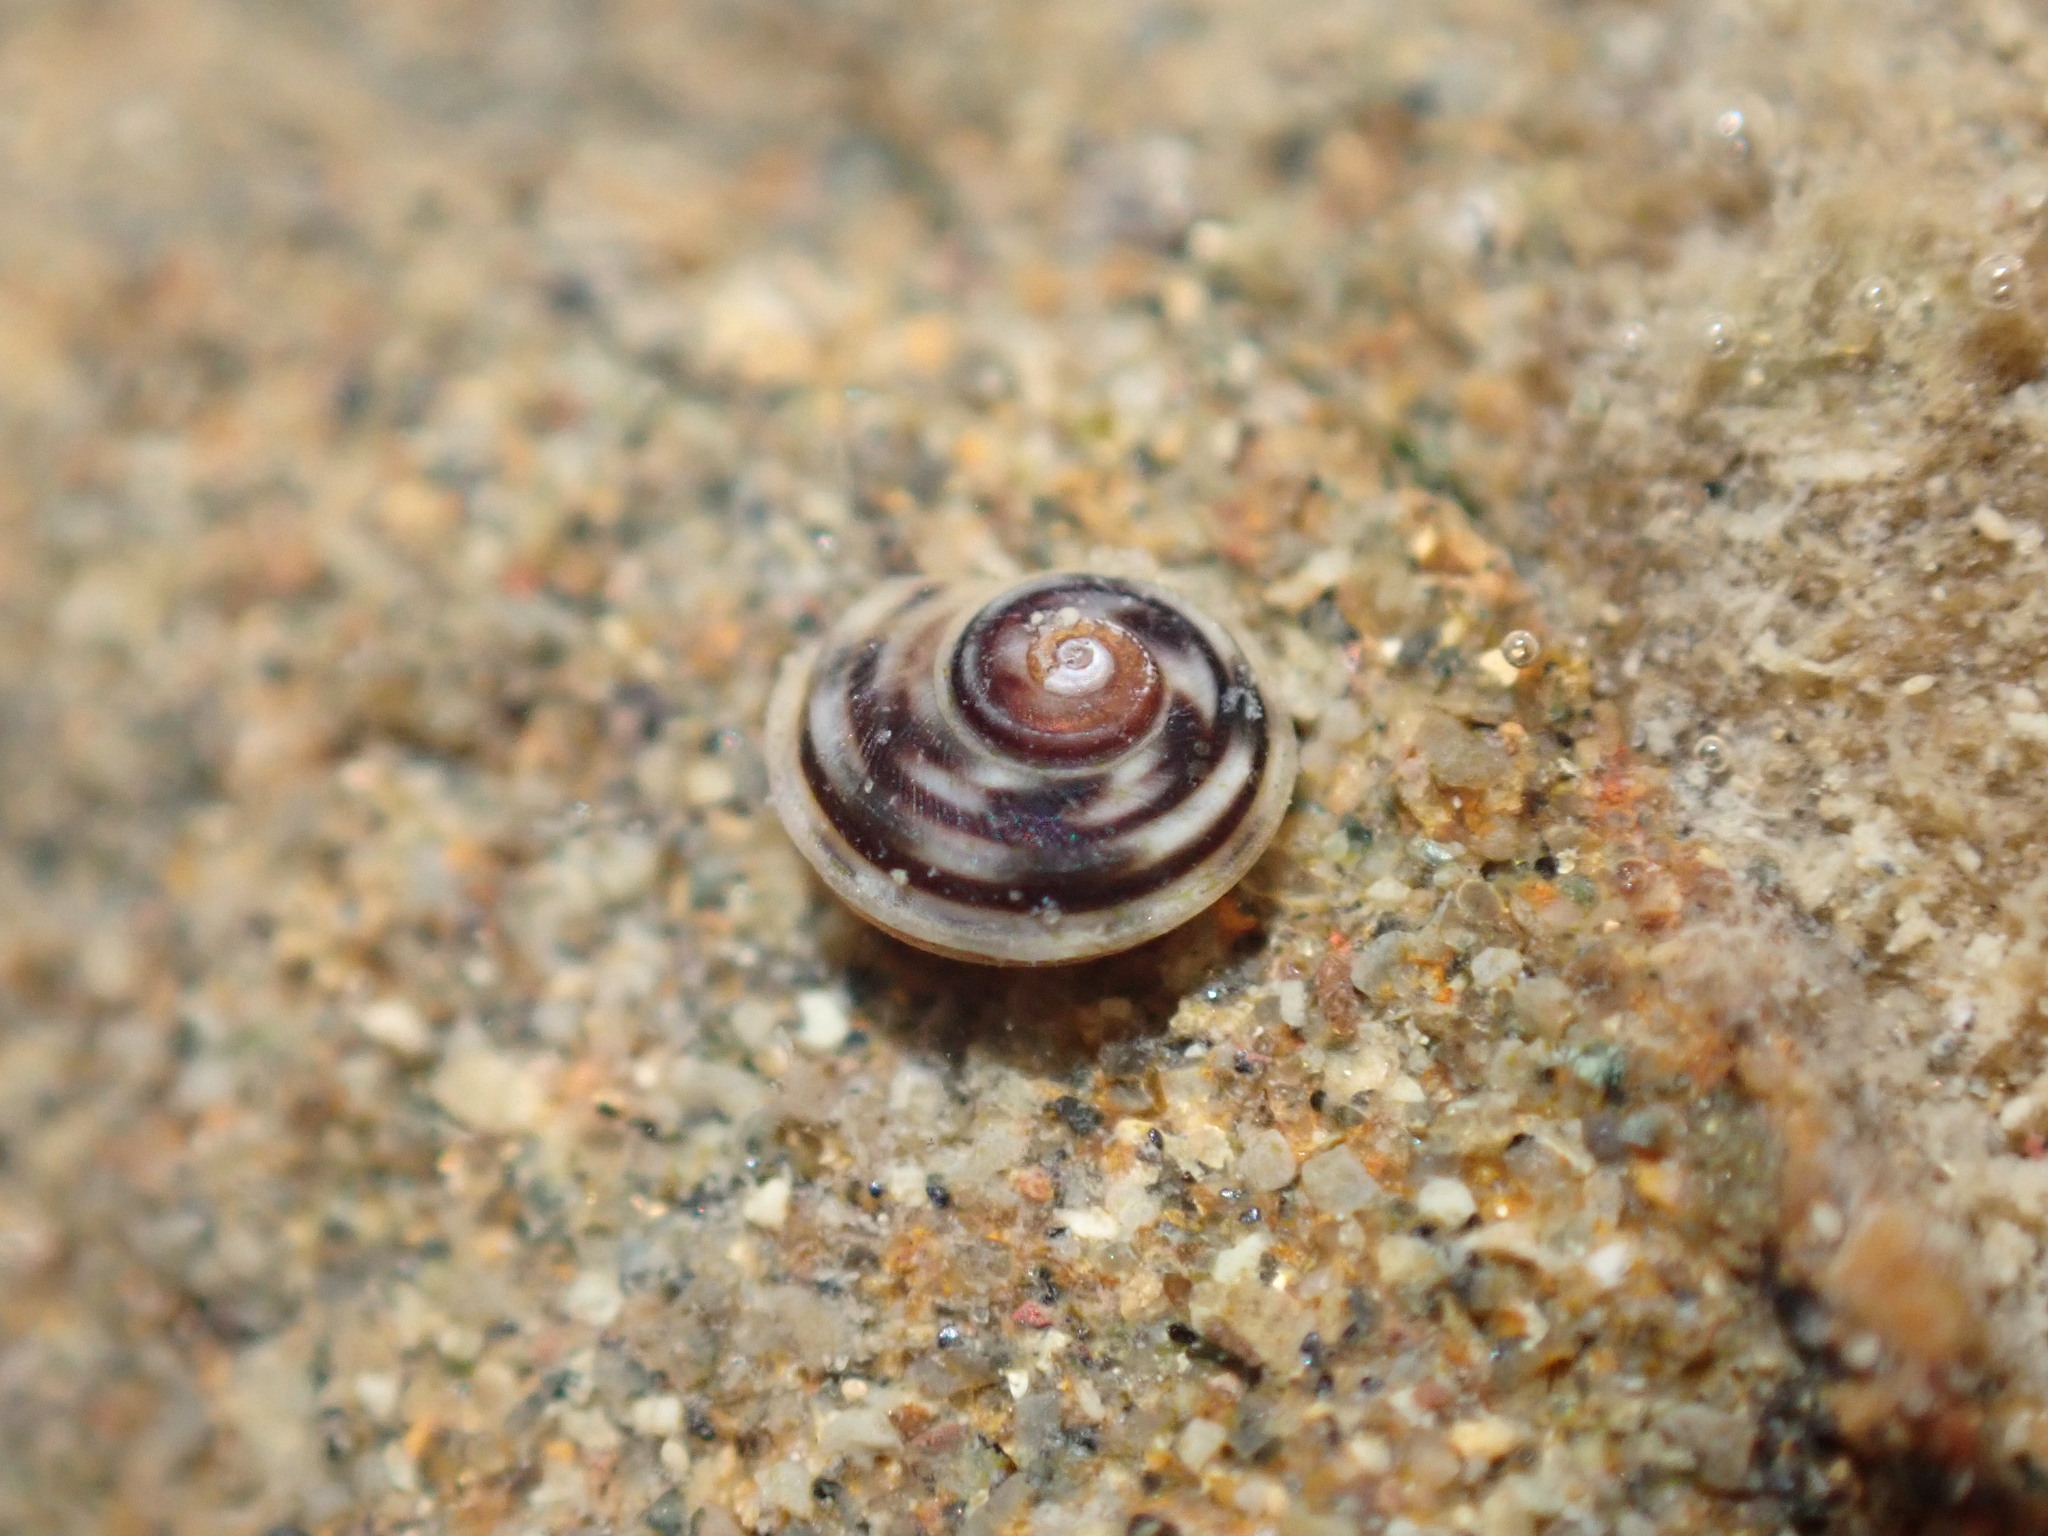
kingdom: Animalia
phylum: Mollusca
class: Gastropoda
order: Littorinimorpha
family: Littorinidae
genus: Risellopsis
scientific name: Risellopsis varia
